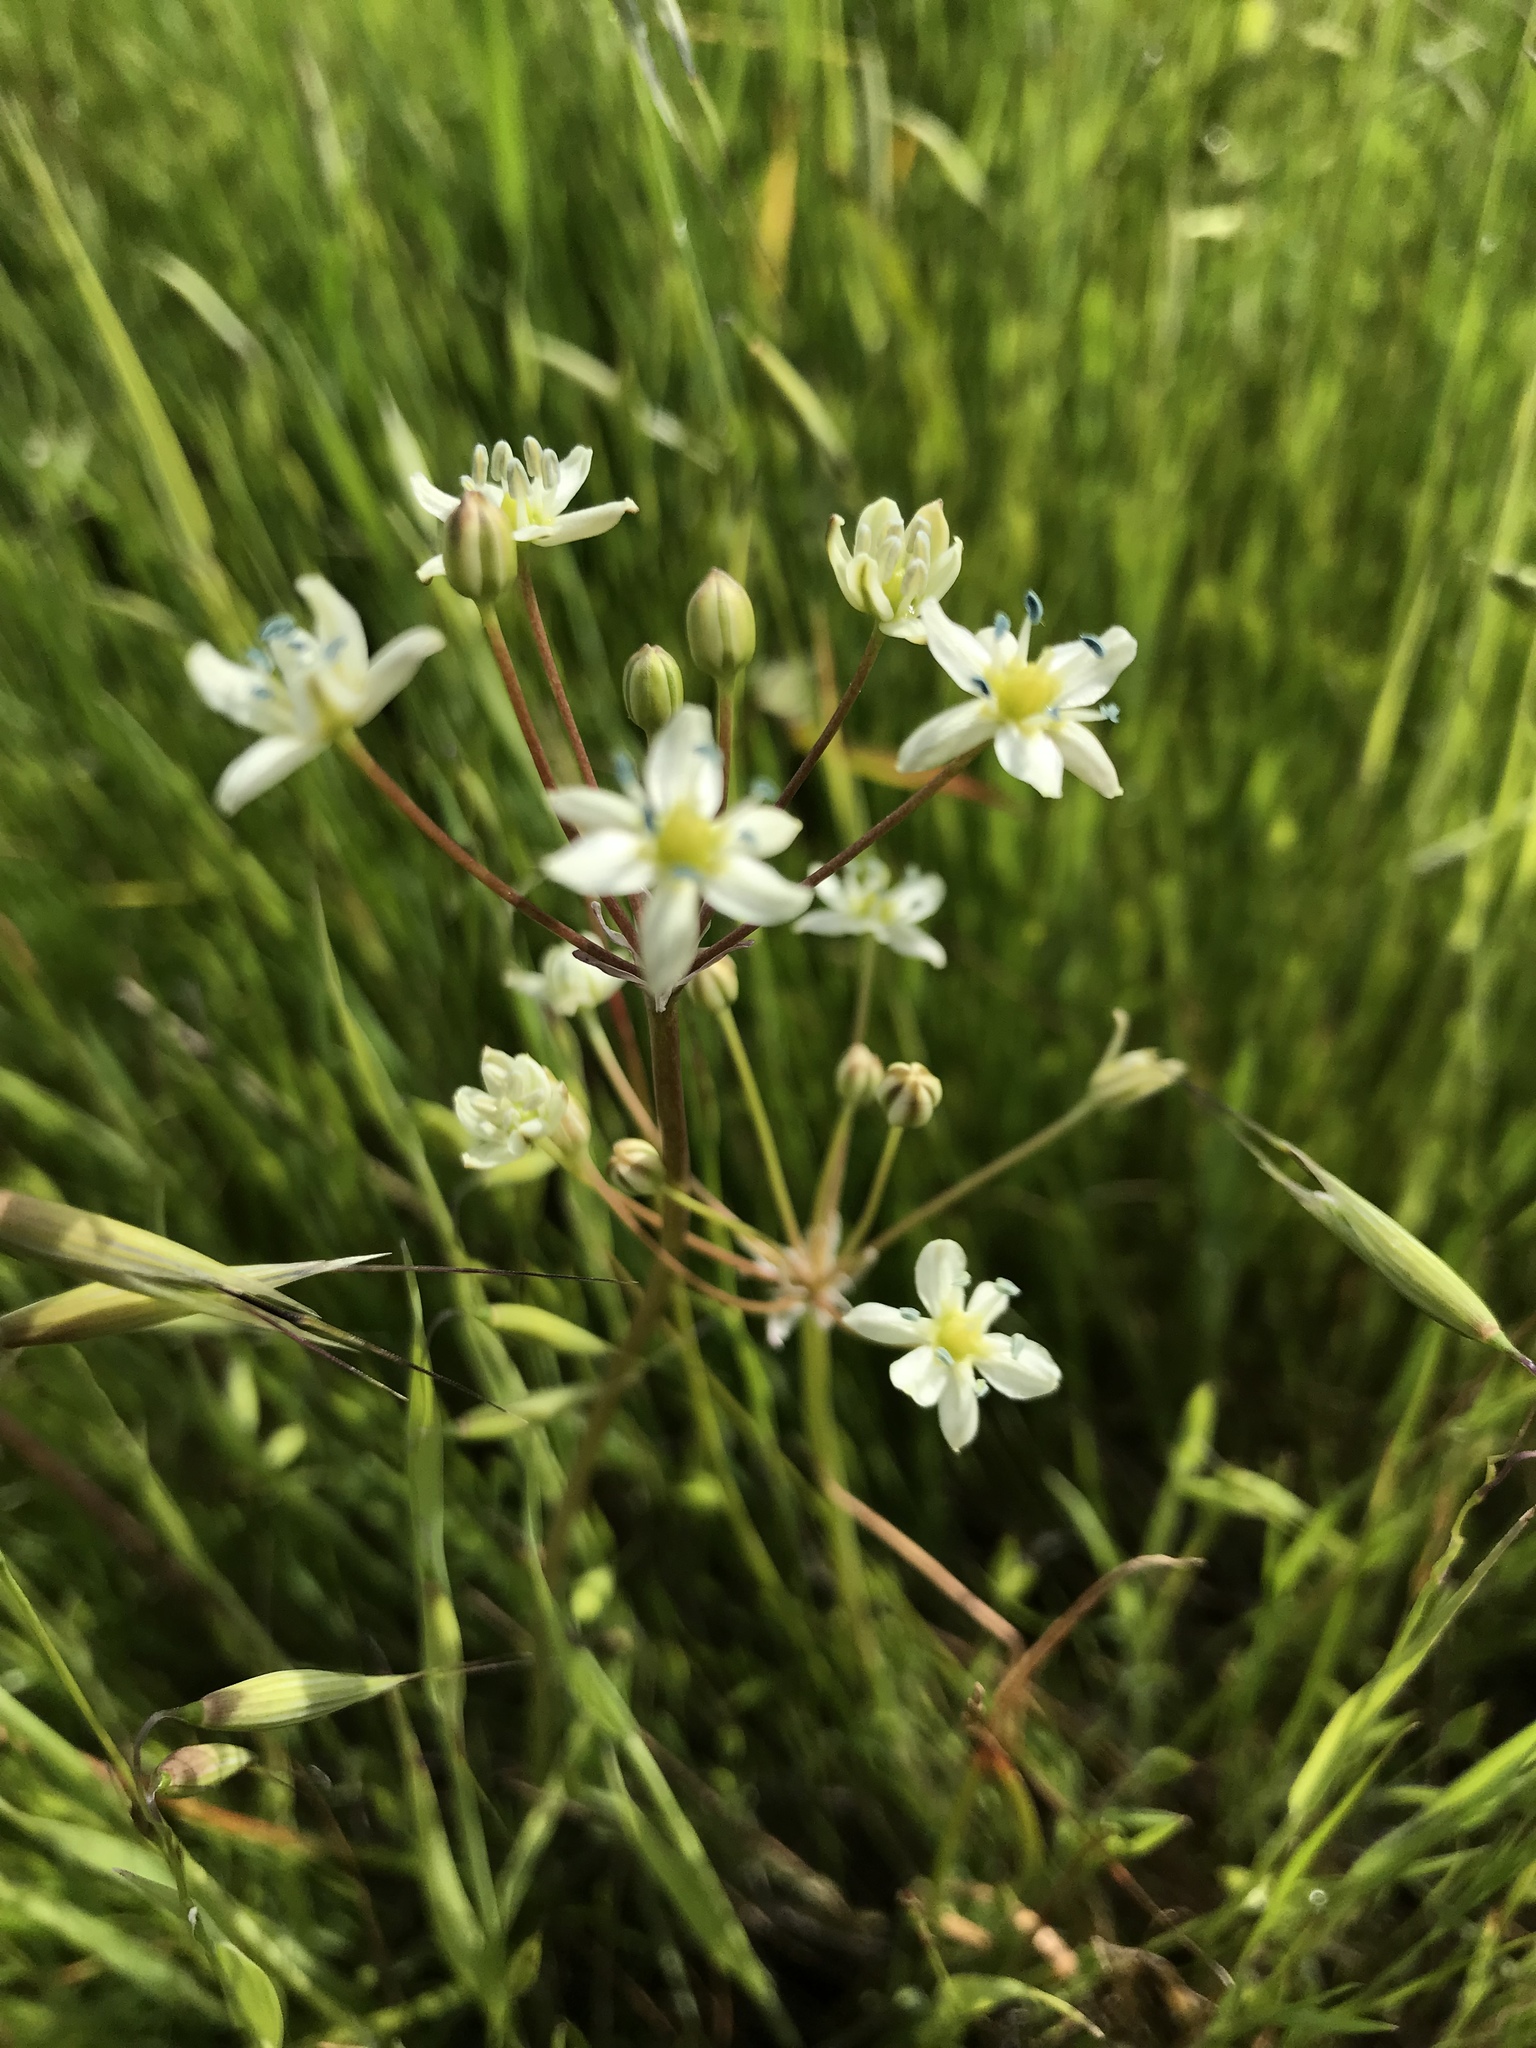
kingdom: Plantae
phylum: Tracheophyta
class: Liliopsida
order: Asparagales
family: Asparagaceae
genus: Muilla
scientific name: Muilla maritima
